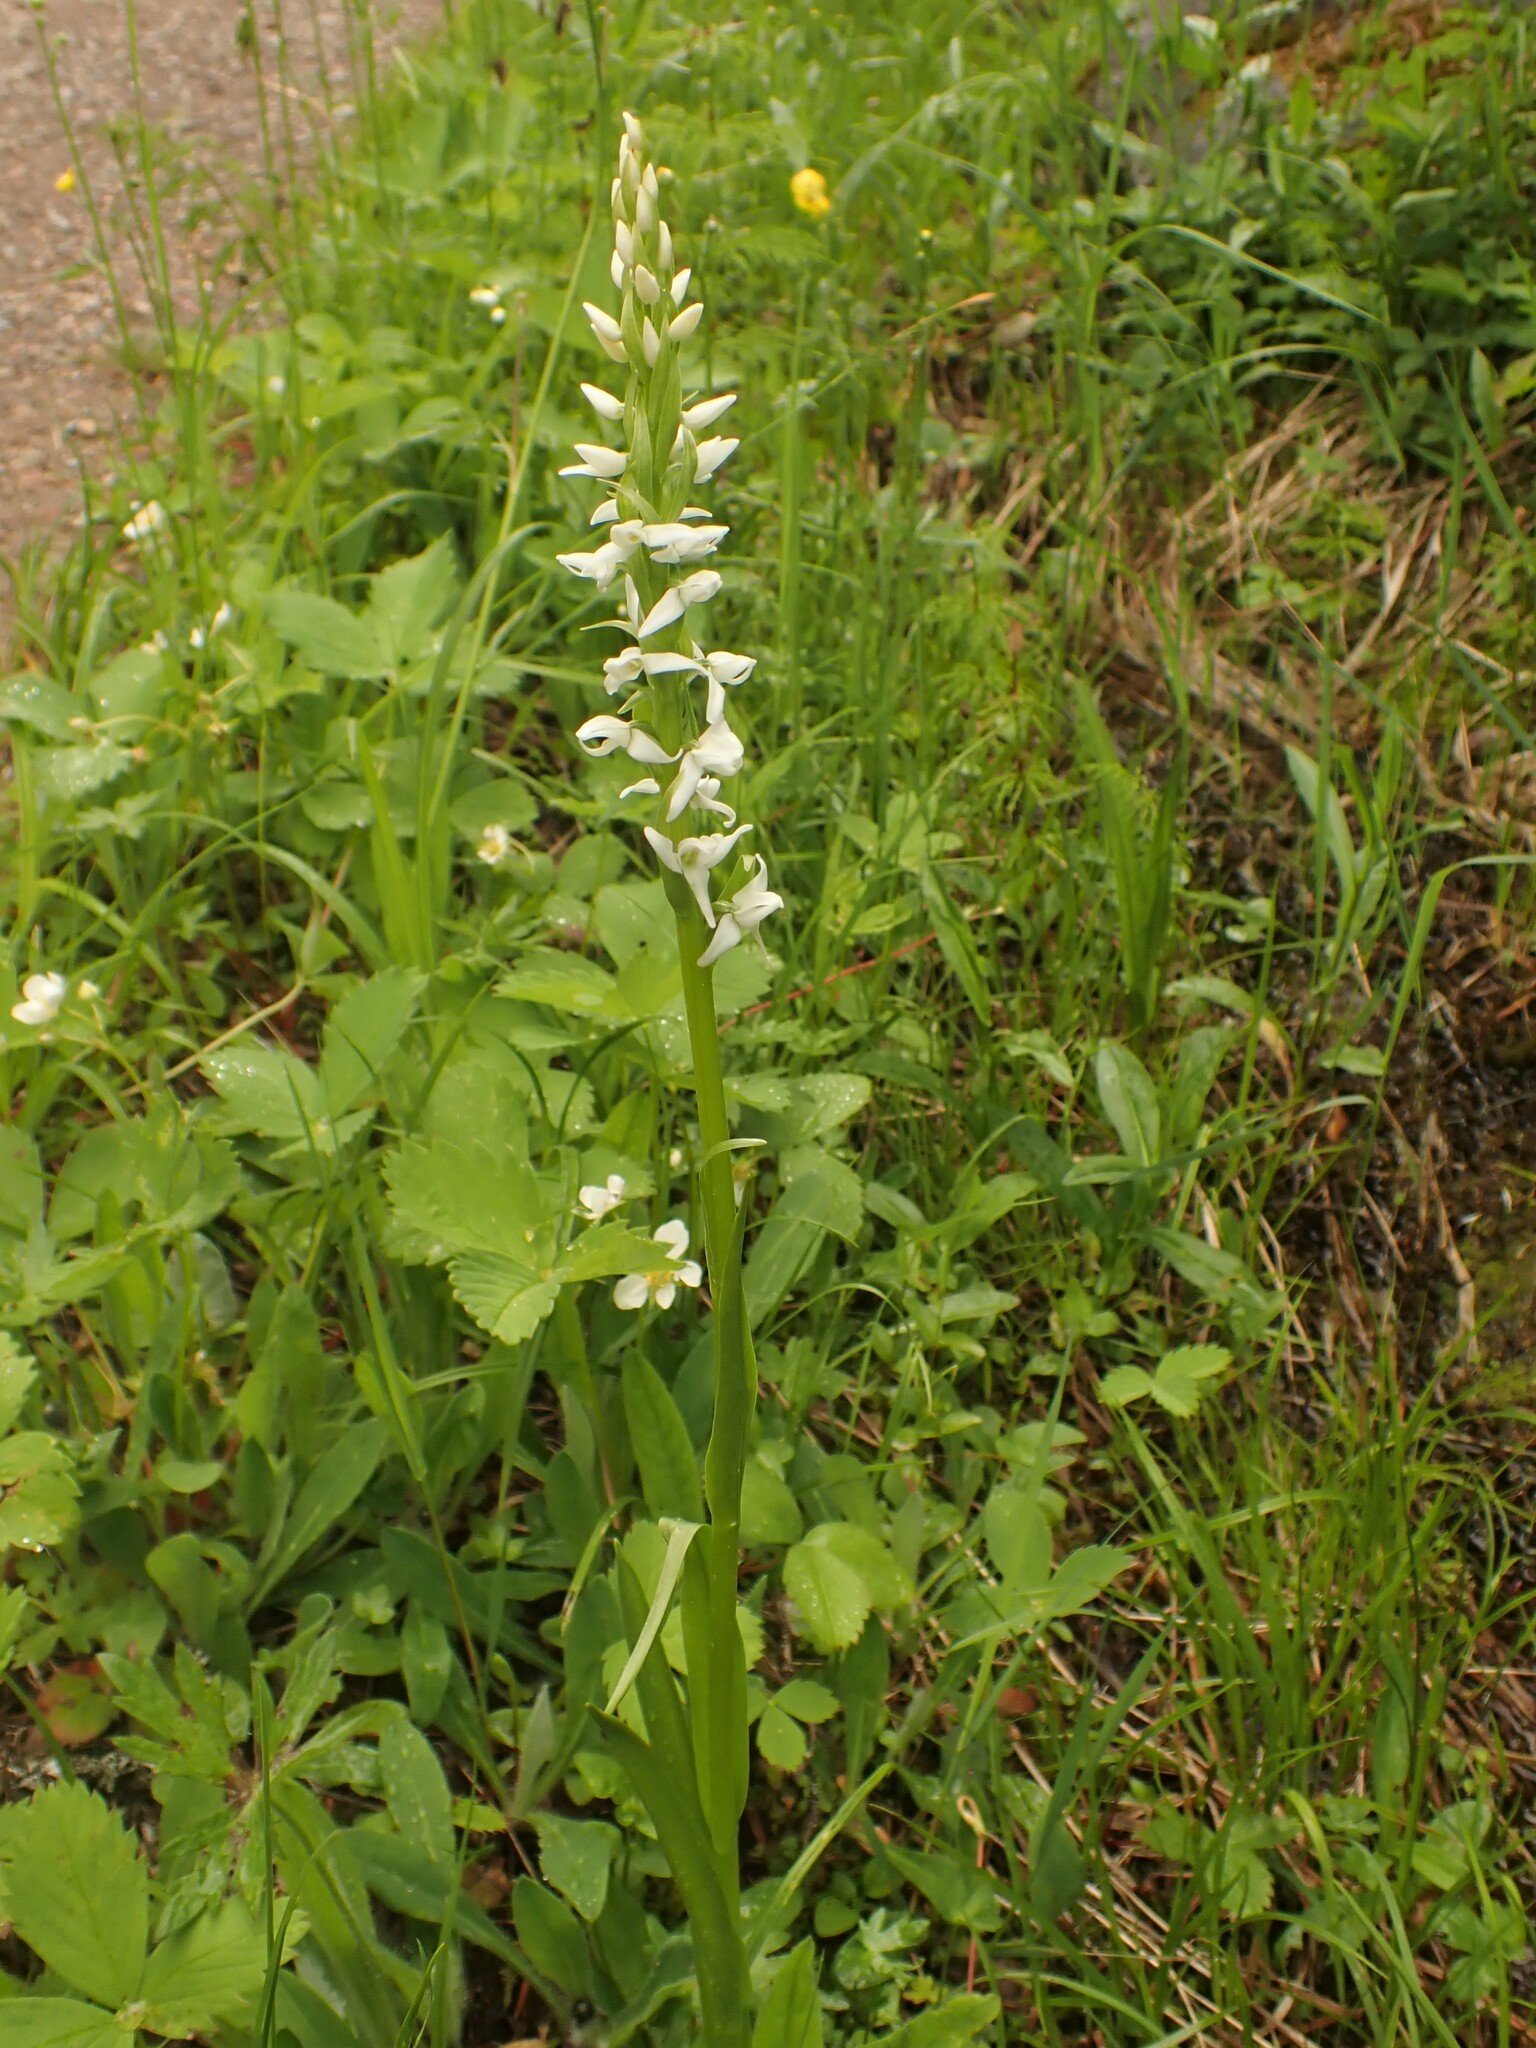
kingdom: Plantae
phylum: Tracheophyta
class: Liliopsida
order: Asparagales
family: Orchidaceae
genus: Platanthera
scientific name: Platanthera dilatata
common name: Bog candles
